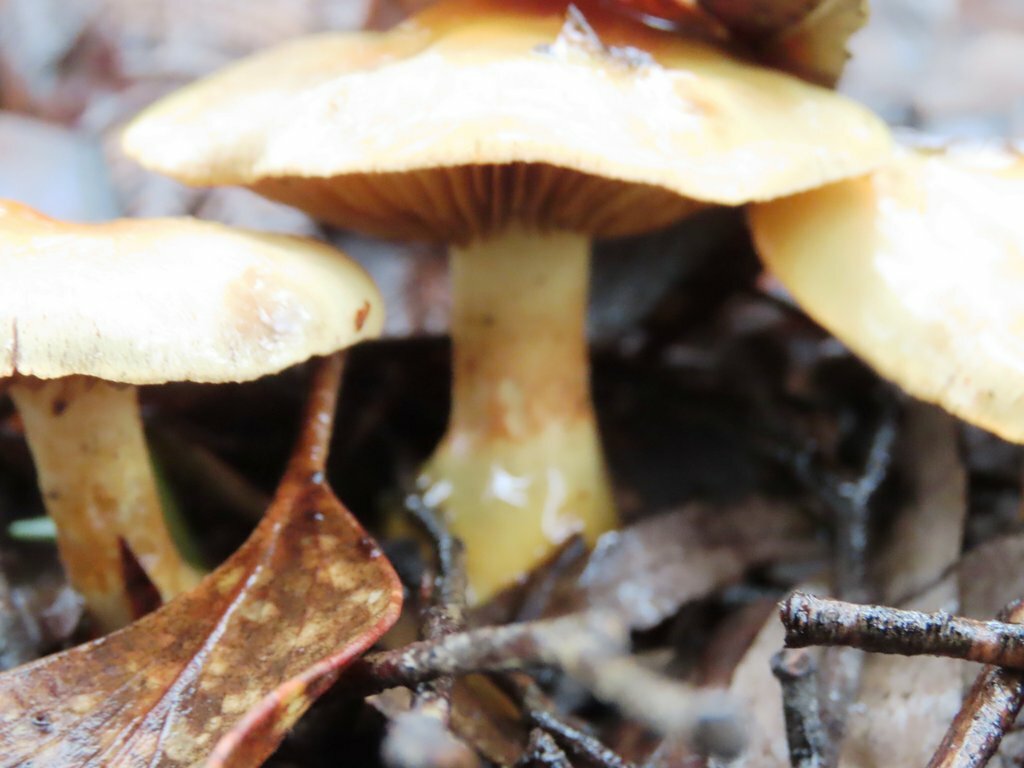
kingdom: Fungi
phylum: Basidiomycota
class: Agaricomycetes
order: Agaricales
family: Cortinariaceae
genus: Cortinarius
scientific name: Cortinarius sinapicolor
